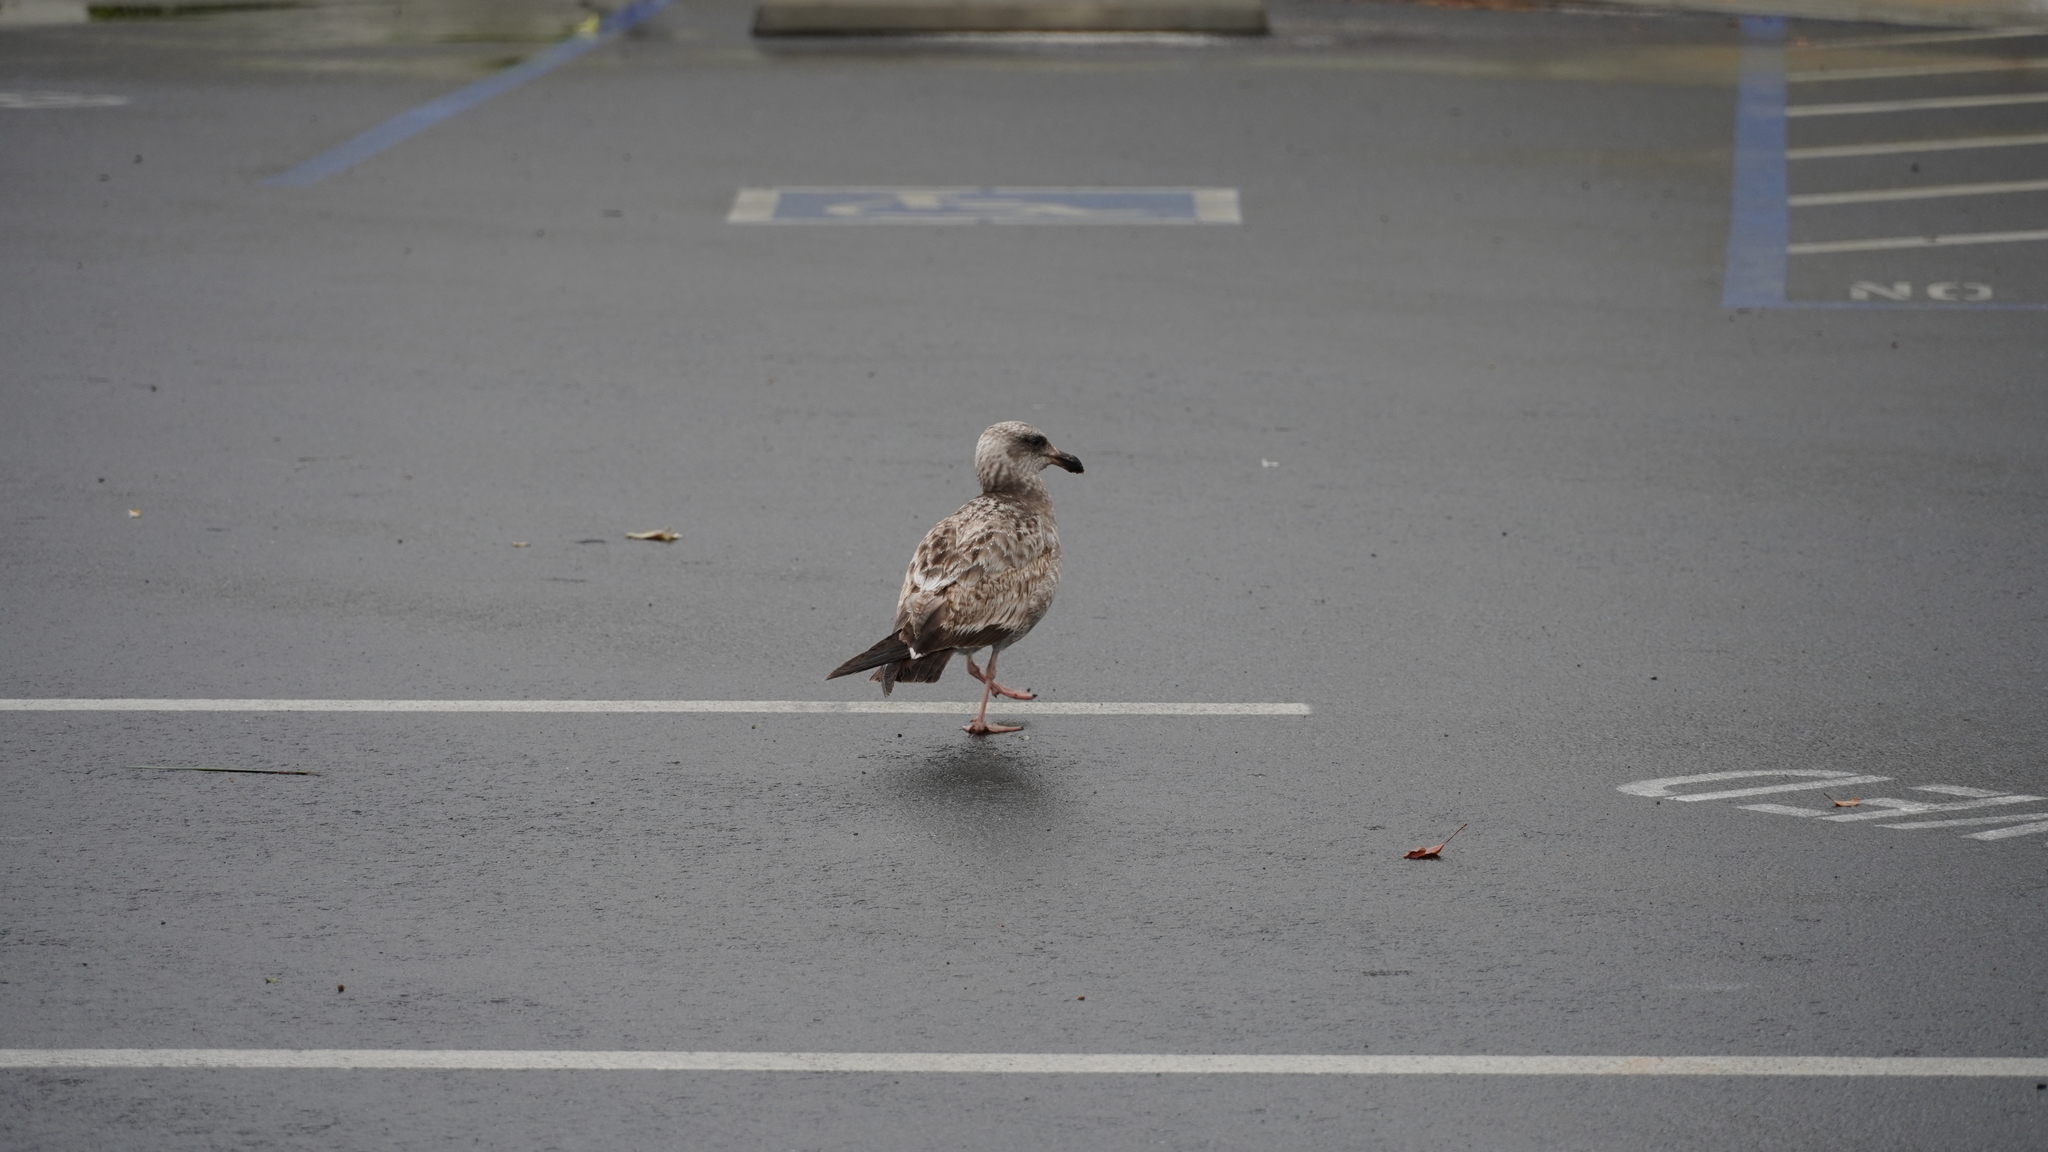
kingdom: Animalia
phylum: Chordata
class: Aves
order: Charadriiformes
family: Laridae
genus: Larus
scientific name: Larus occidentalis
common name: Western gull
